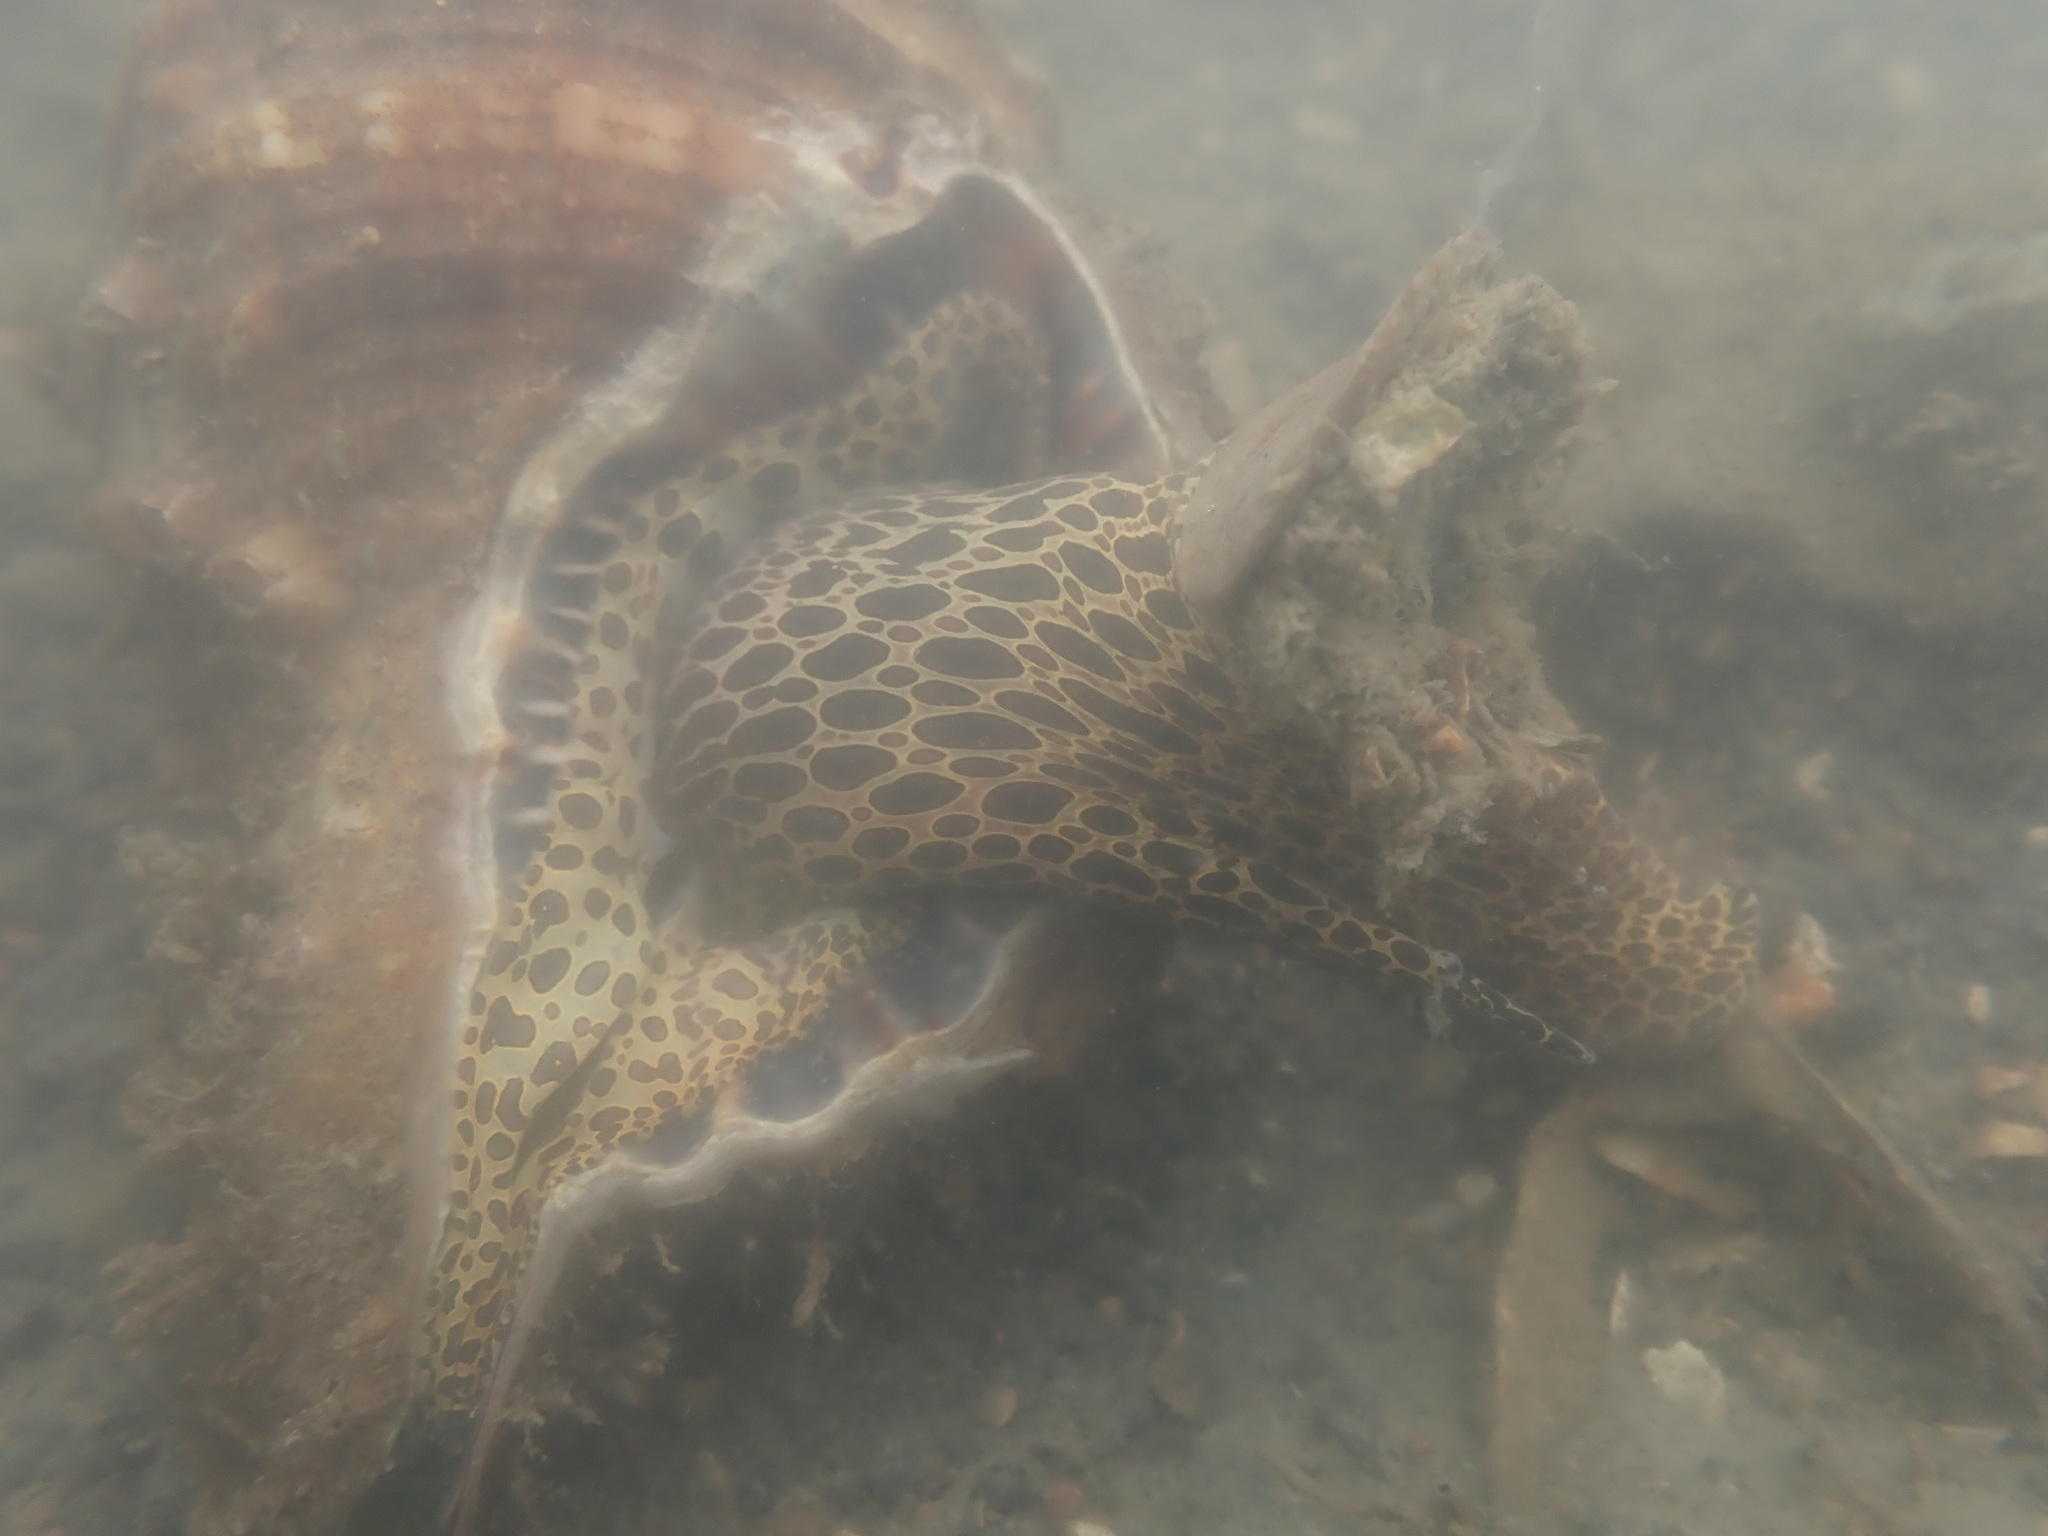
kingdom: Animalia
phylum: Mollusca
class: Gastropoda
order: Littorinimorpha
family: Cymatiidae
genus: Monoplex
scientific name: Monoplex parthenopeus
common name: Giant triton
